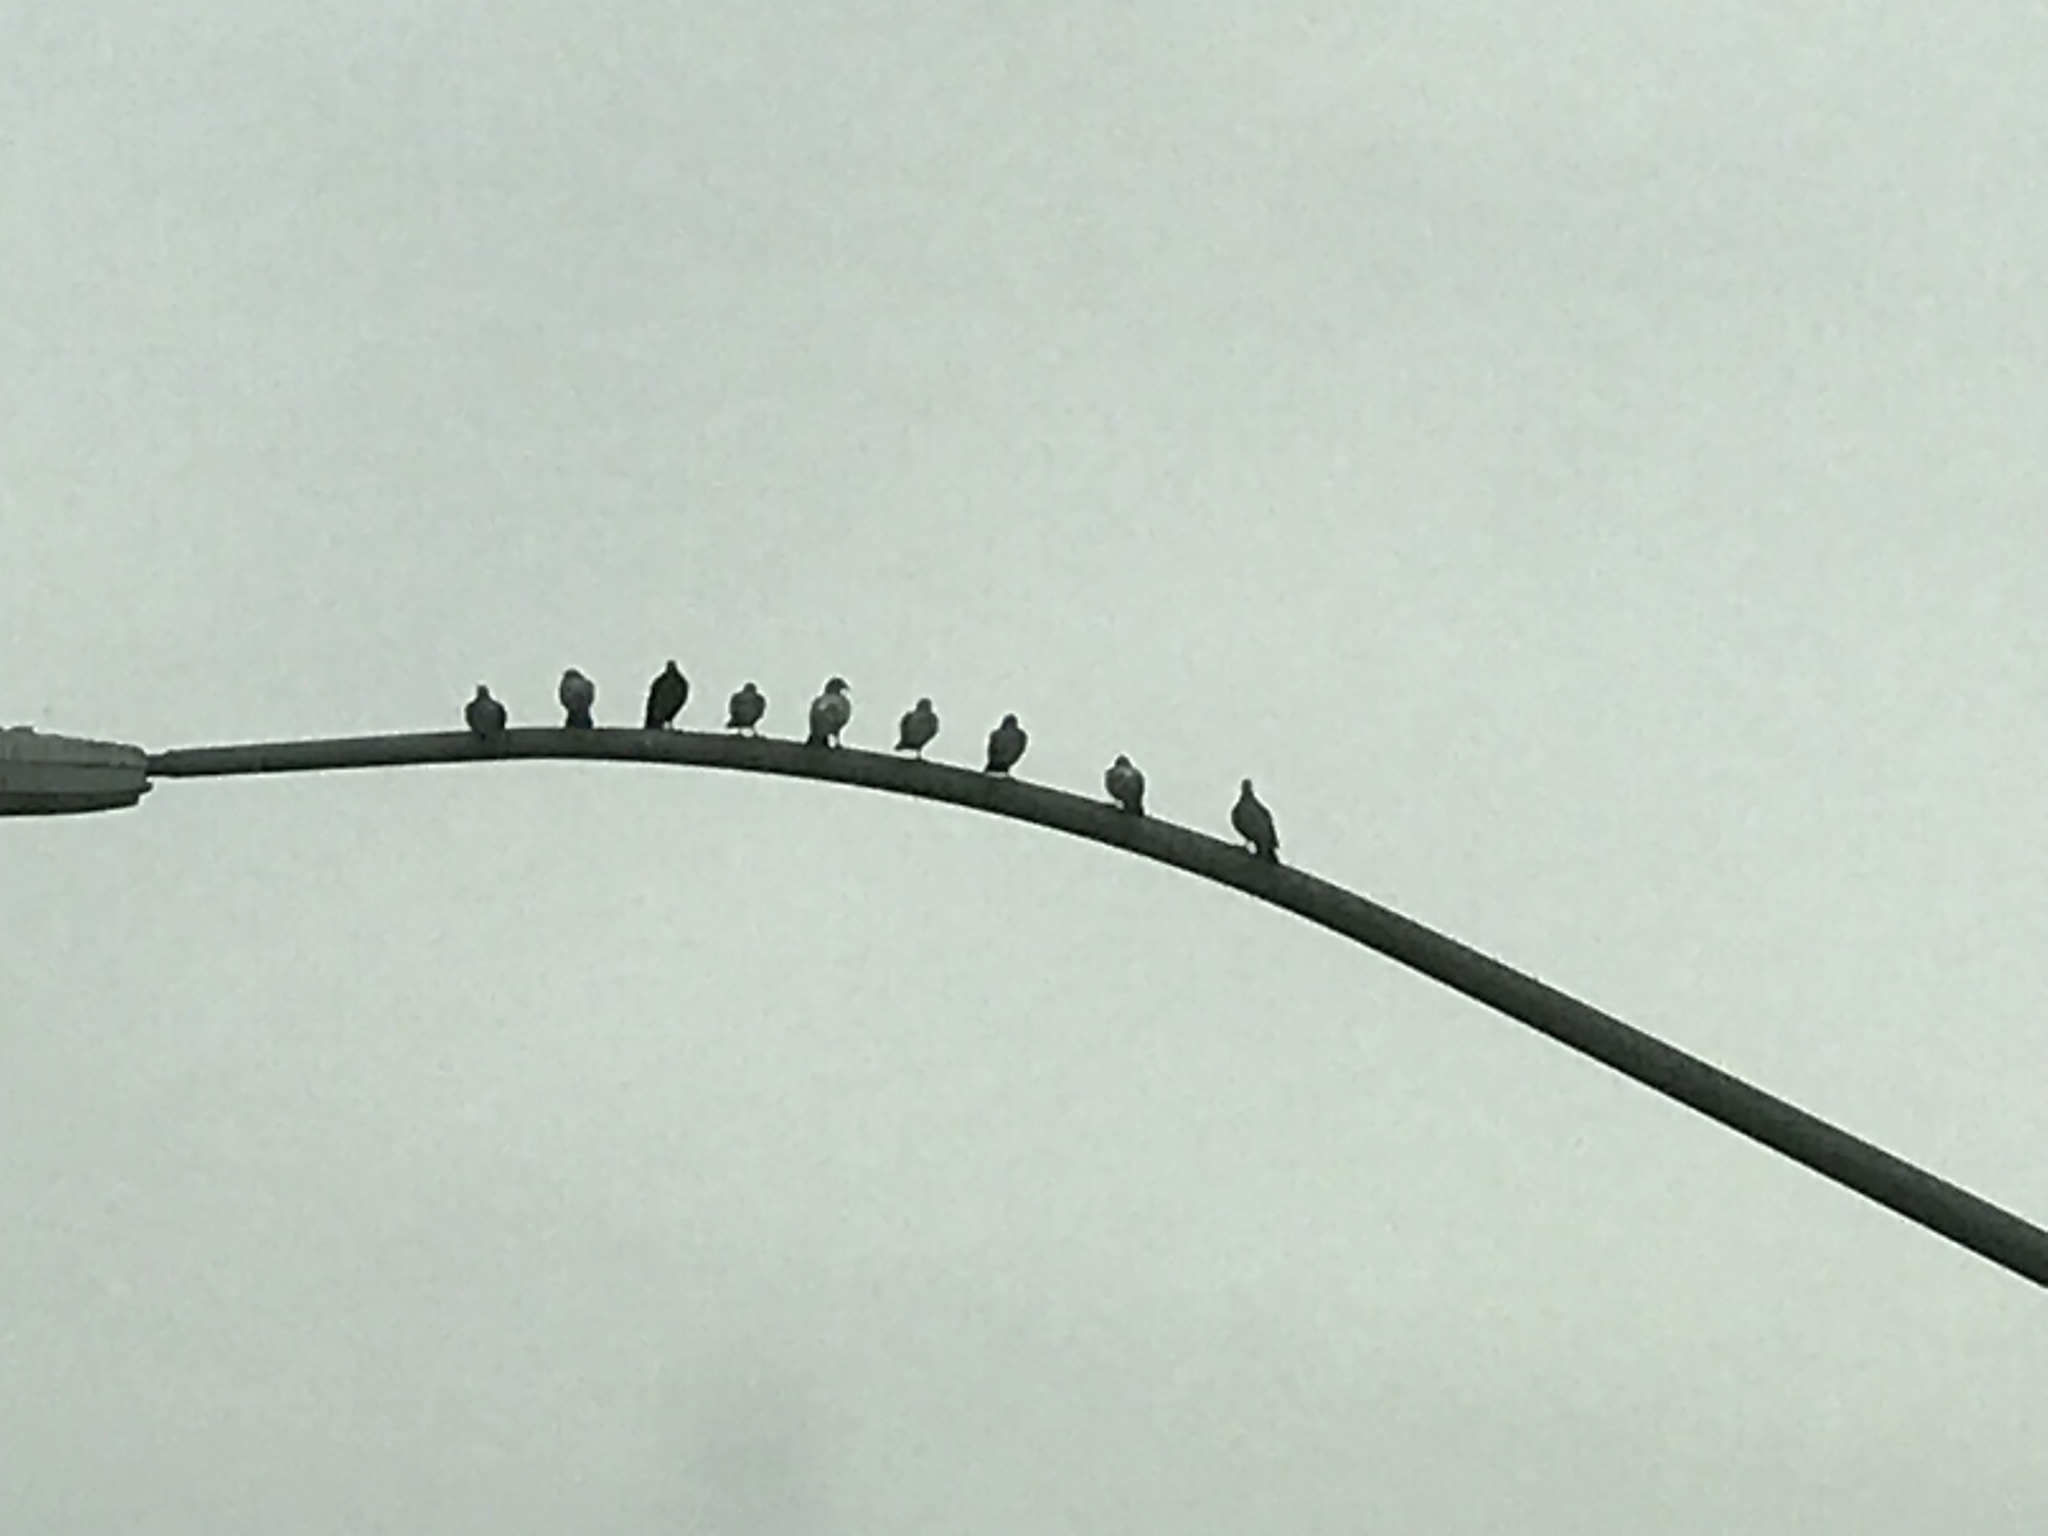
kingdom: Animalia
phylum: Chordata
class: Aves
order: Columbiformes
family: Columbidae
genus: Columba
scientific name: Columba livia
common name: Rock pigeon
